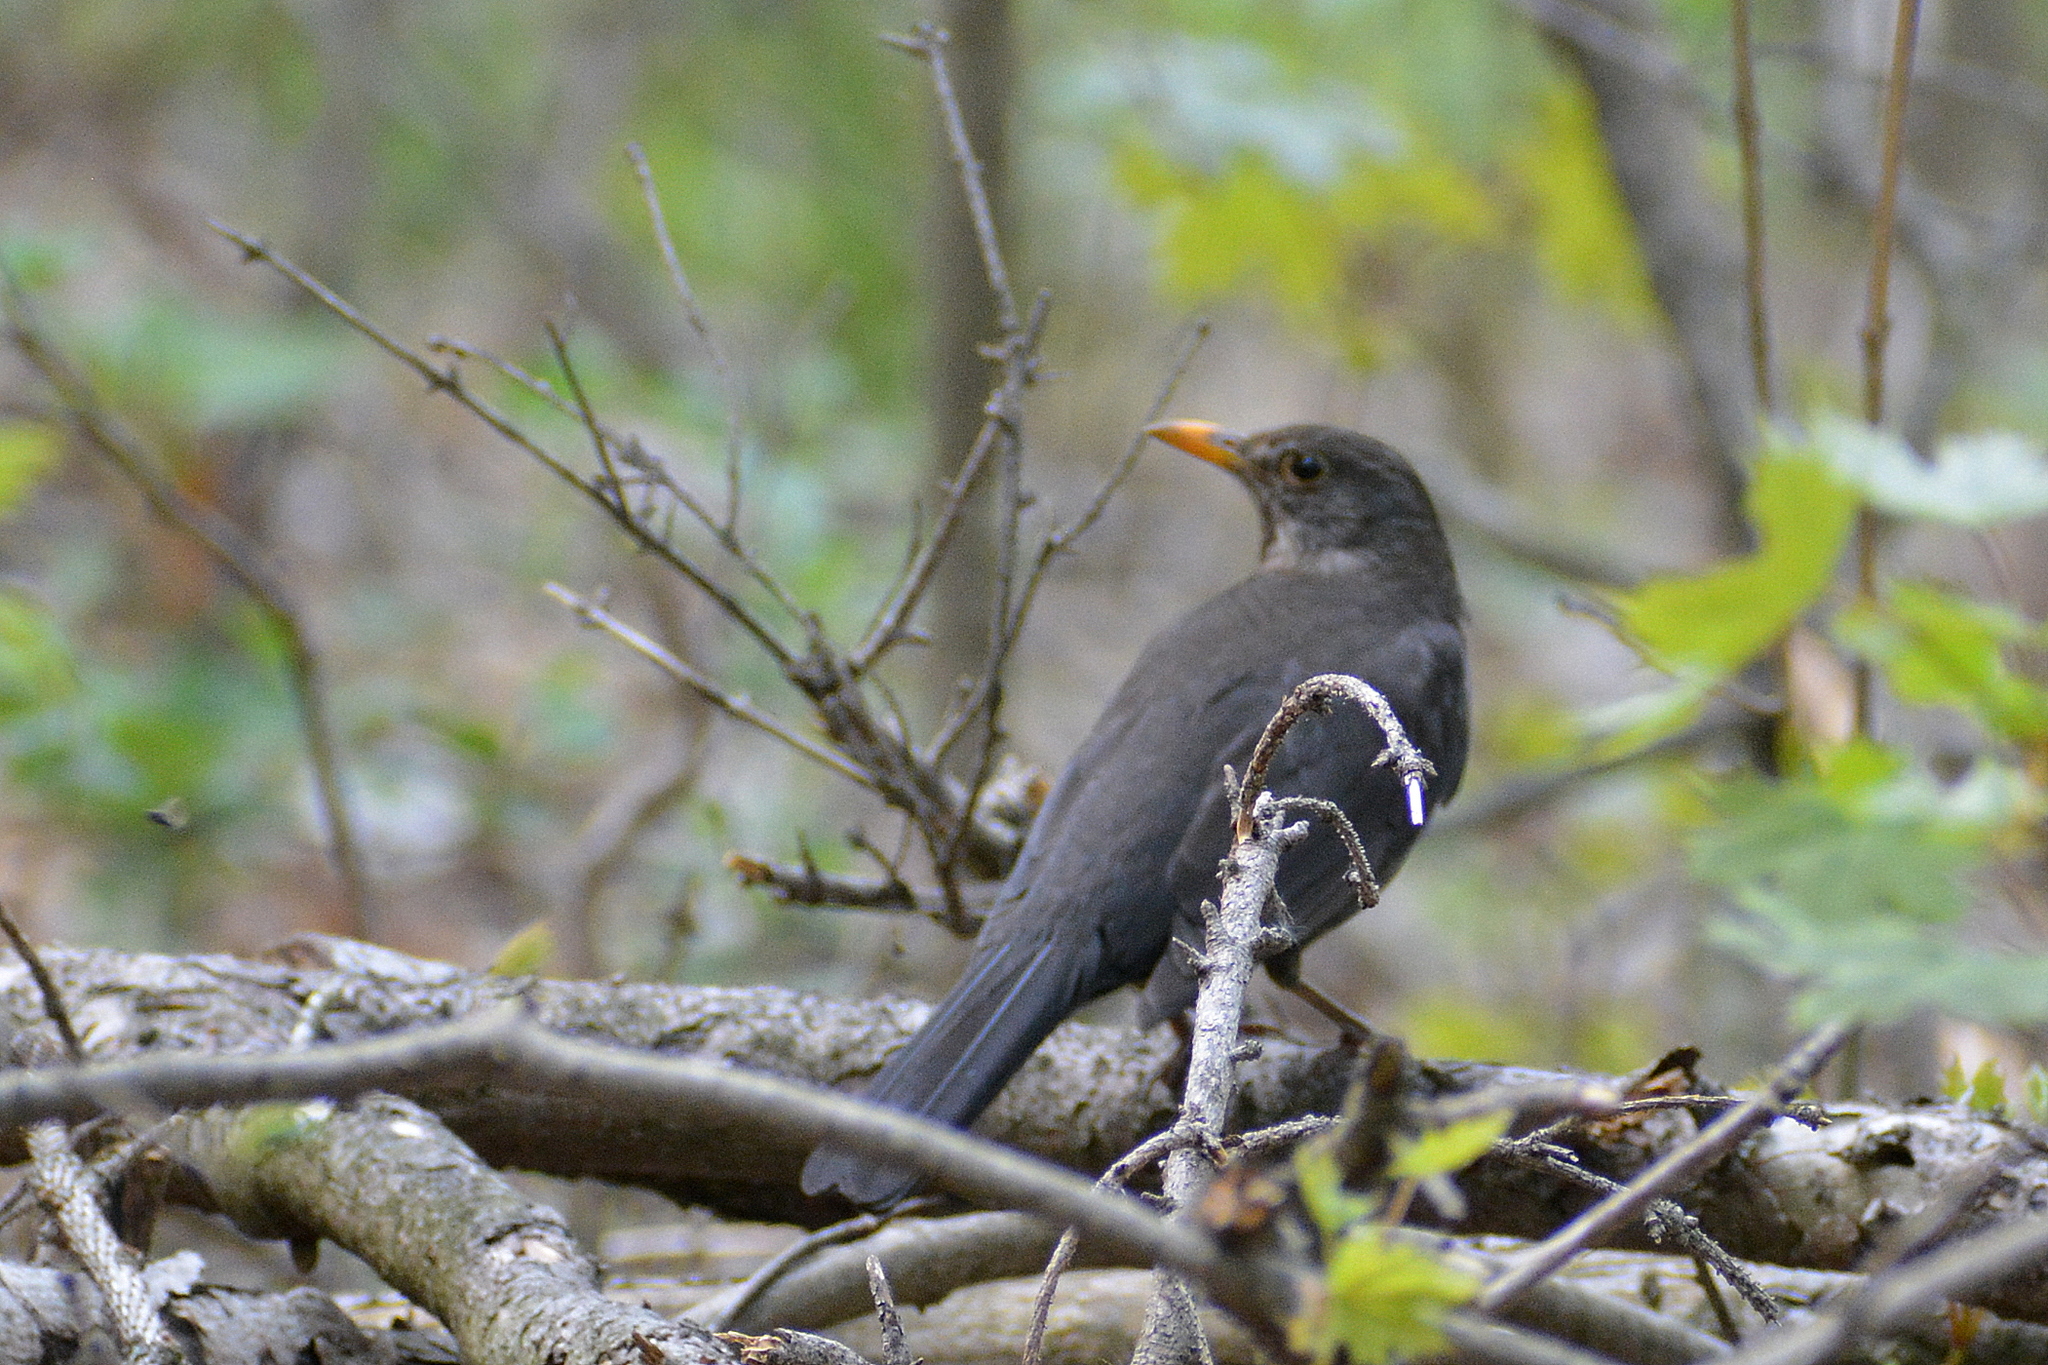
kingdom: Animalia
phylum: Chordata
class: Aves
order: Passeriformes
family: Turdidae
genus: Turdus
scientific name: Turdus merula
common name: Common blackbird
